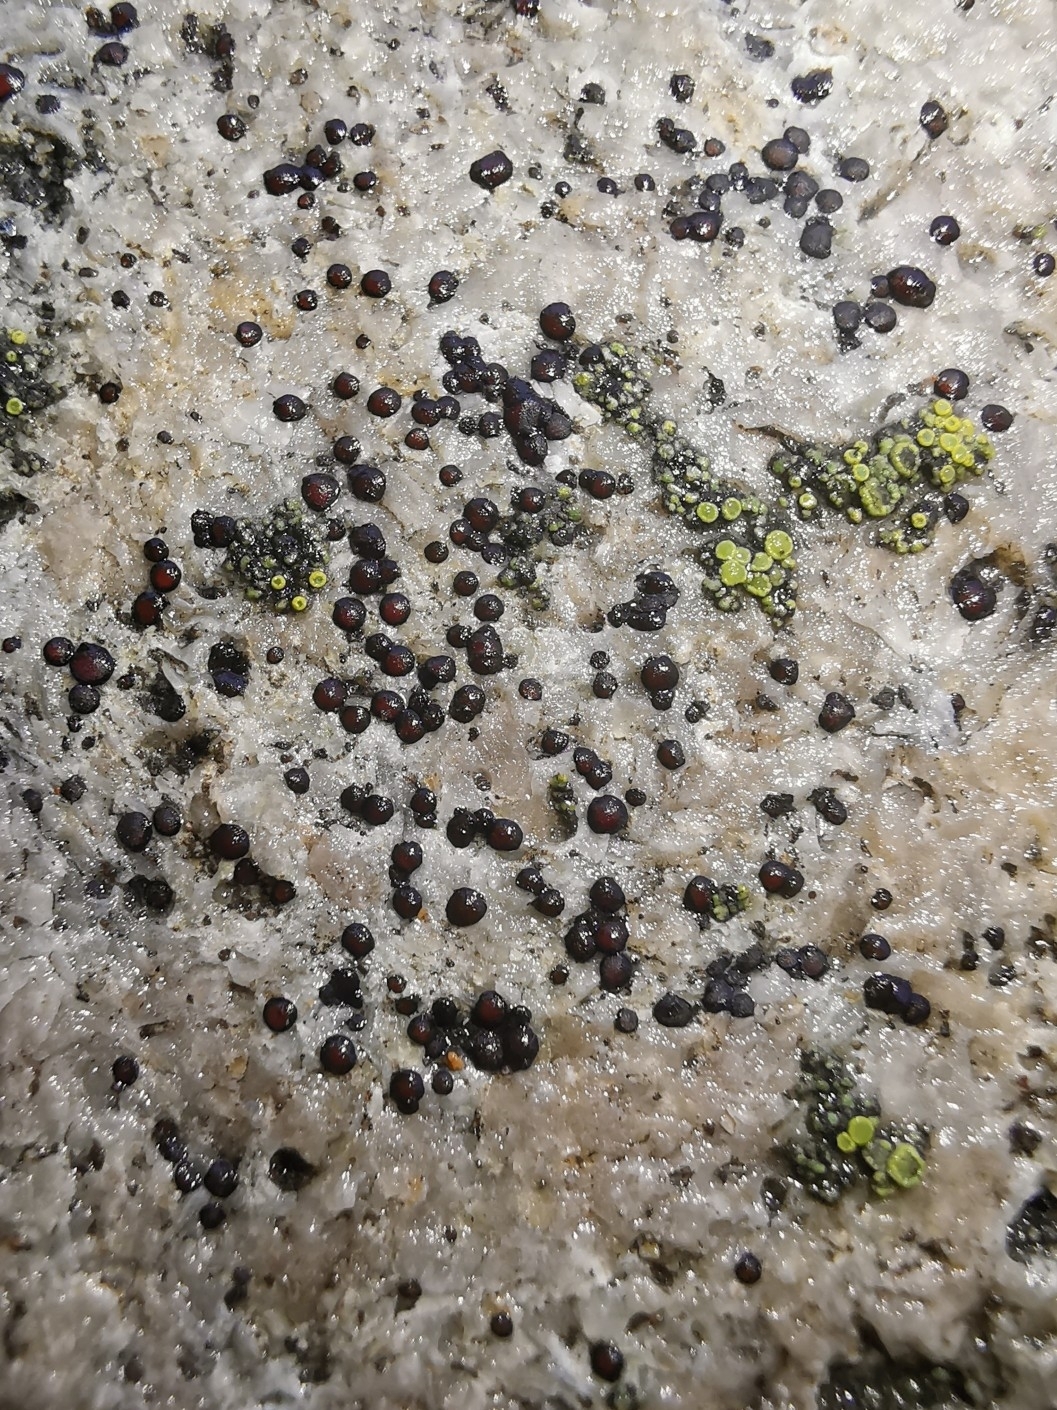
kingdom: Fungi
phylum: Ascomycota
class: Lecanoromycetes
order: Lecanorales
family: Lecanoraceae
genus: Lecidella
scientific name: Lecidella stigmatea
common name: Limestone disc lichen
